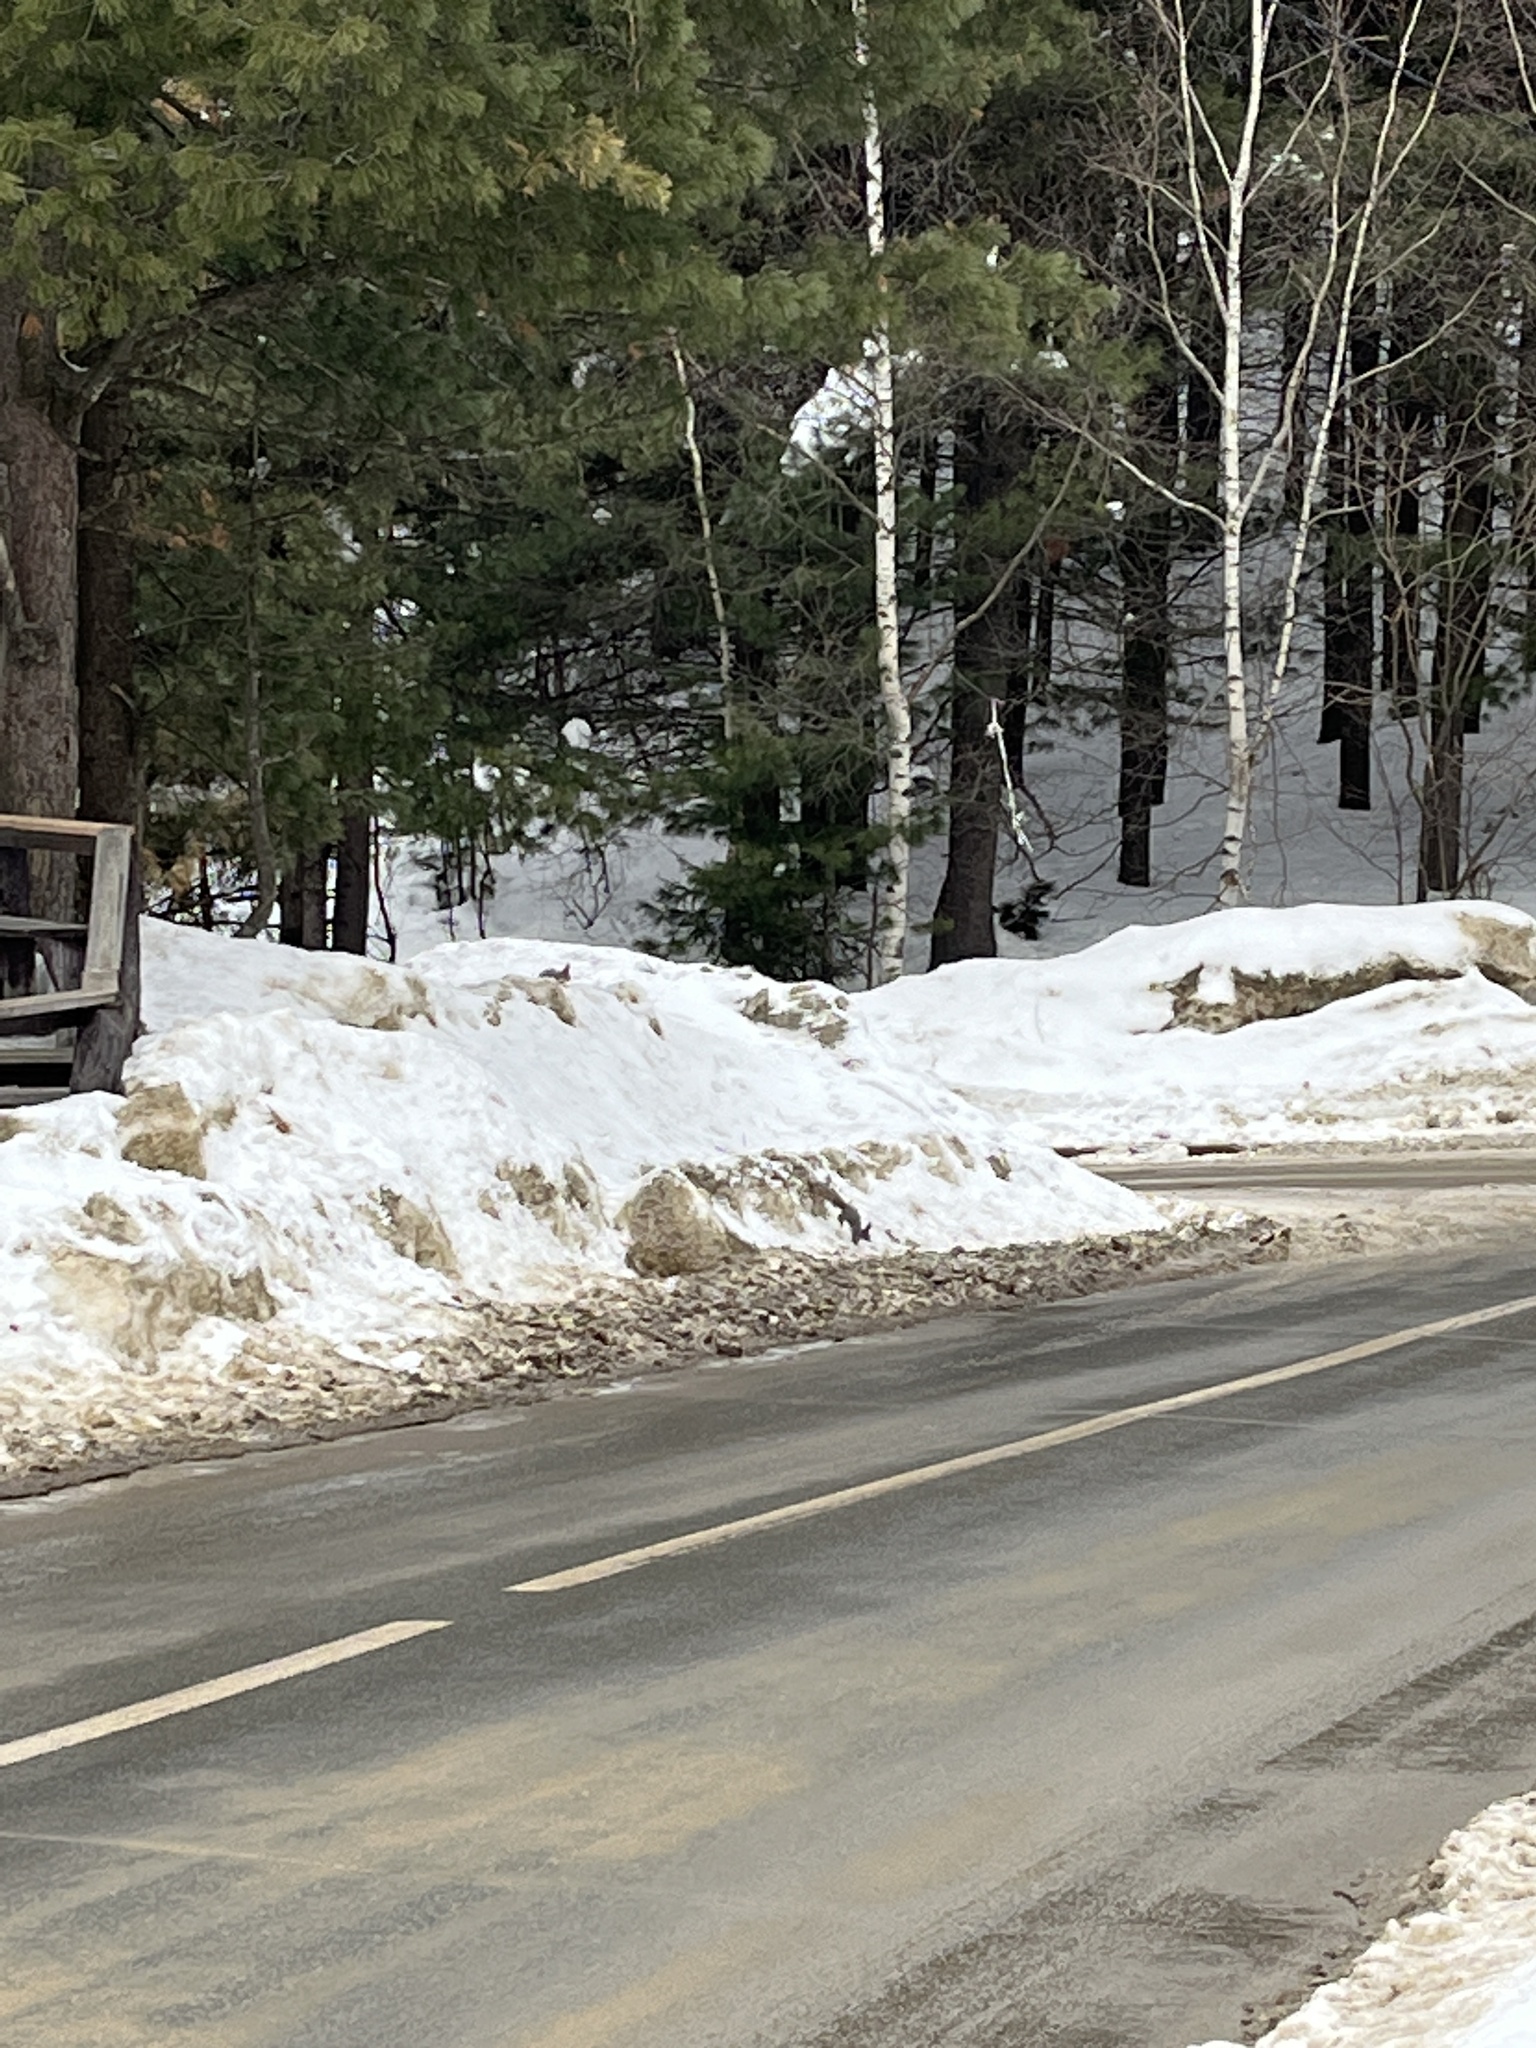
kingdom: Animalia
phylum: Chordata
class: Mammalia
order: Rodentia
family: Sciuridae
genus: Sciurus
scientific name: Sciurus vulgaris
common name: Eurasian red squirrel
